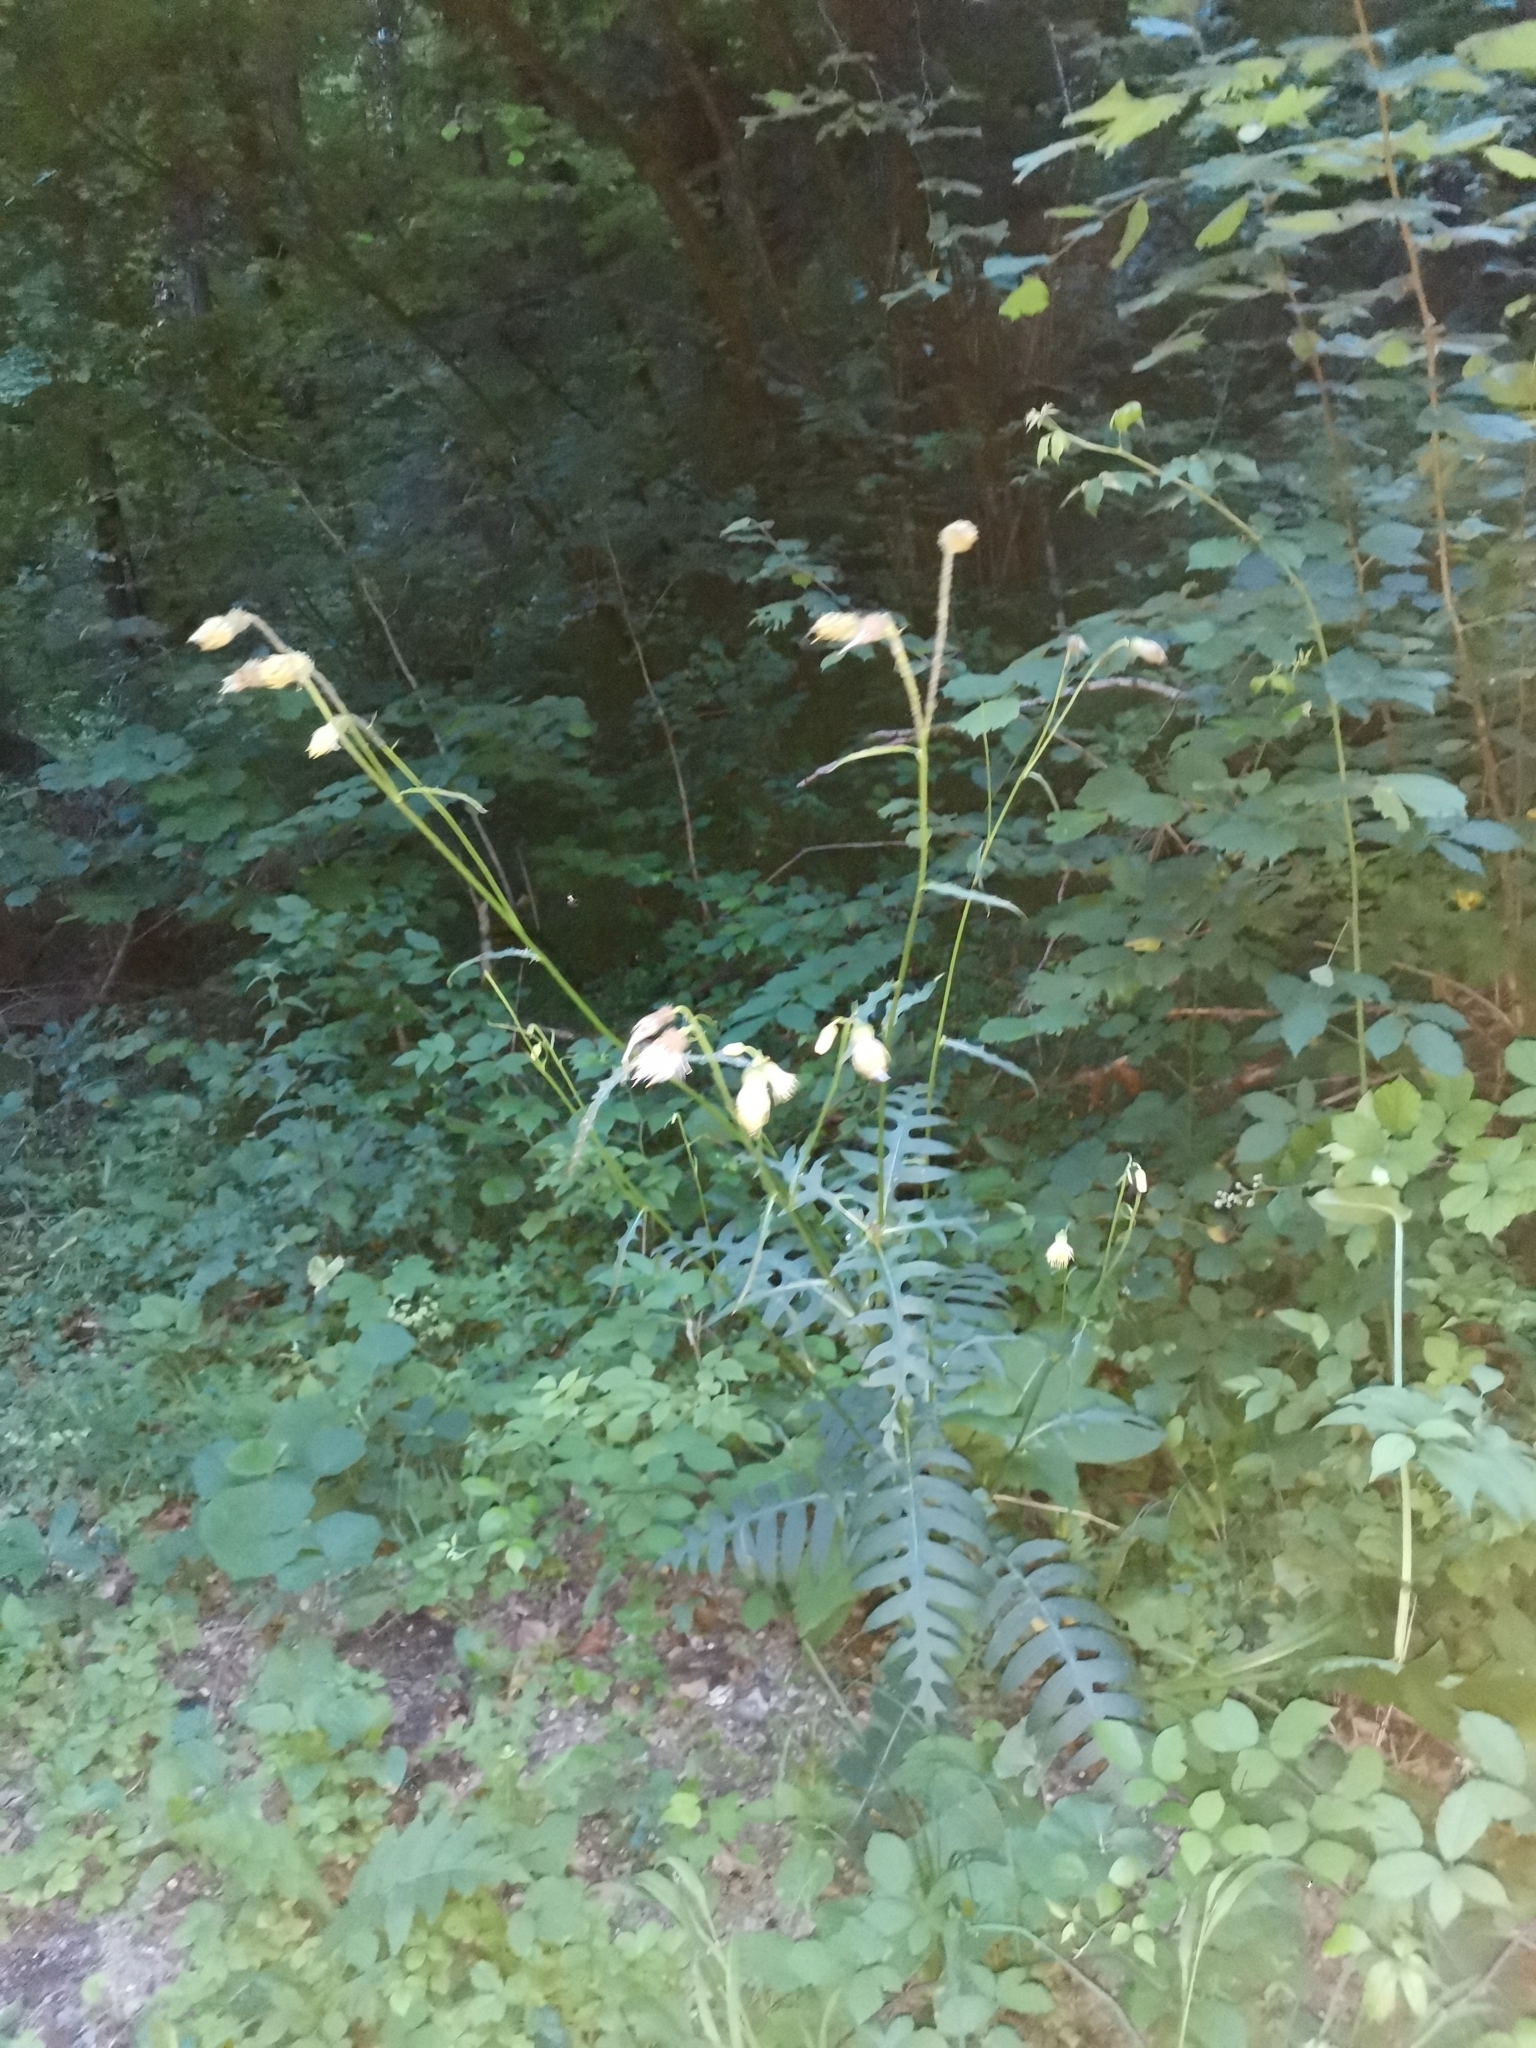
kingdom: Plantae
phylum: Tracheophyta
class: Magnoliopsida
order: Asterales
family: Asteraceae
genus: Cirsium
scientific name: Cirsium erisithales
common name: Yellow thistle
